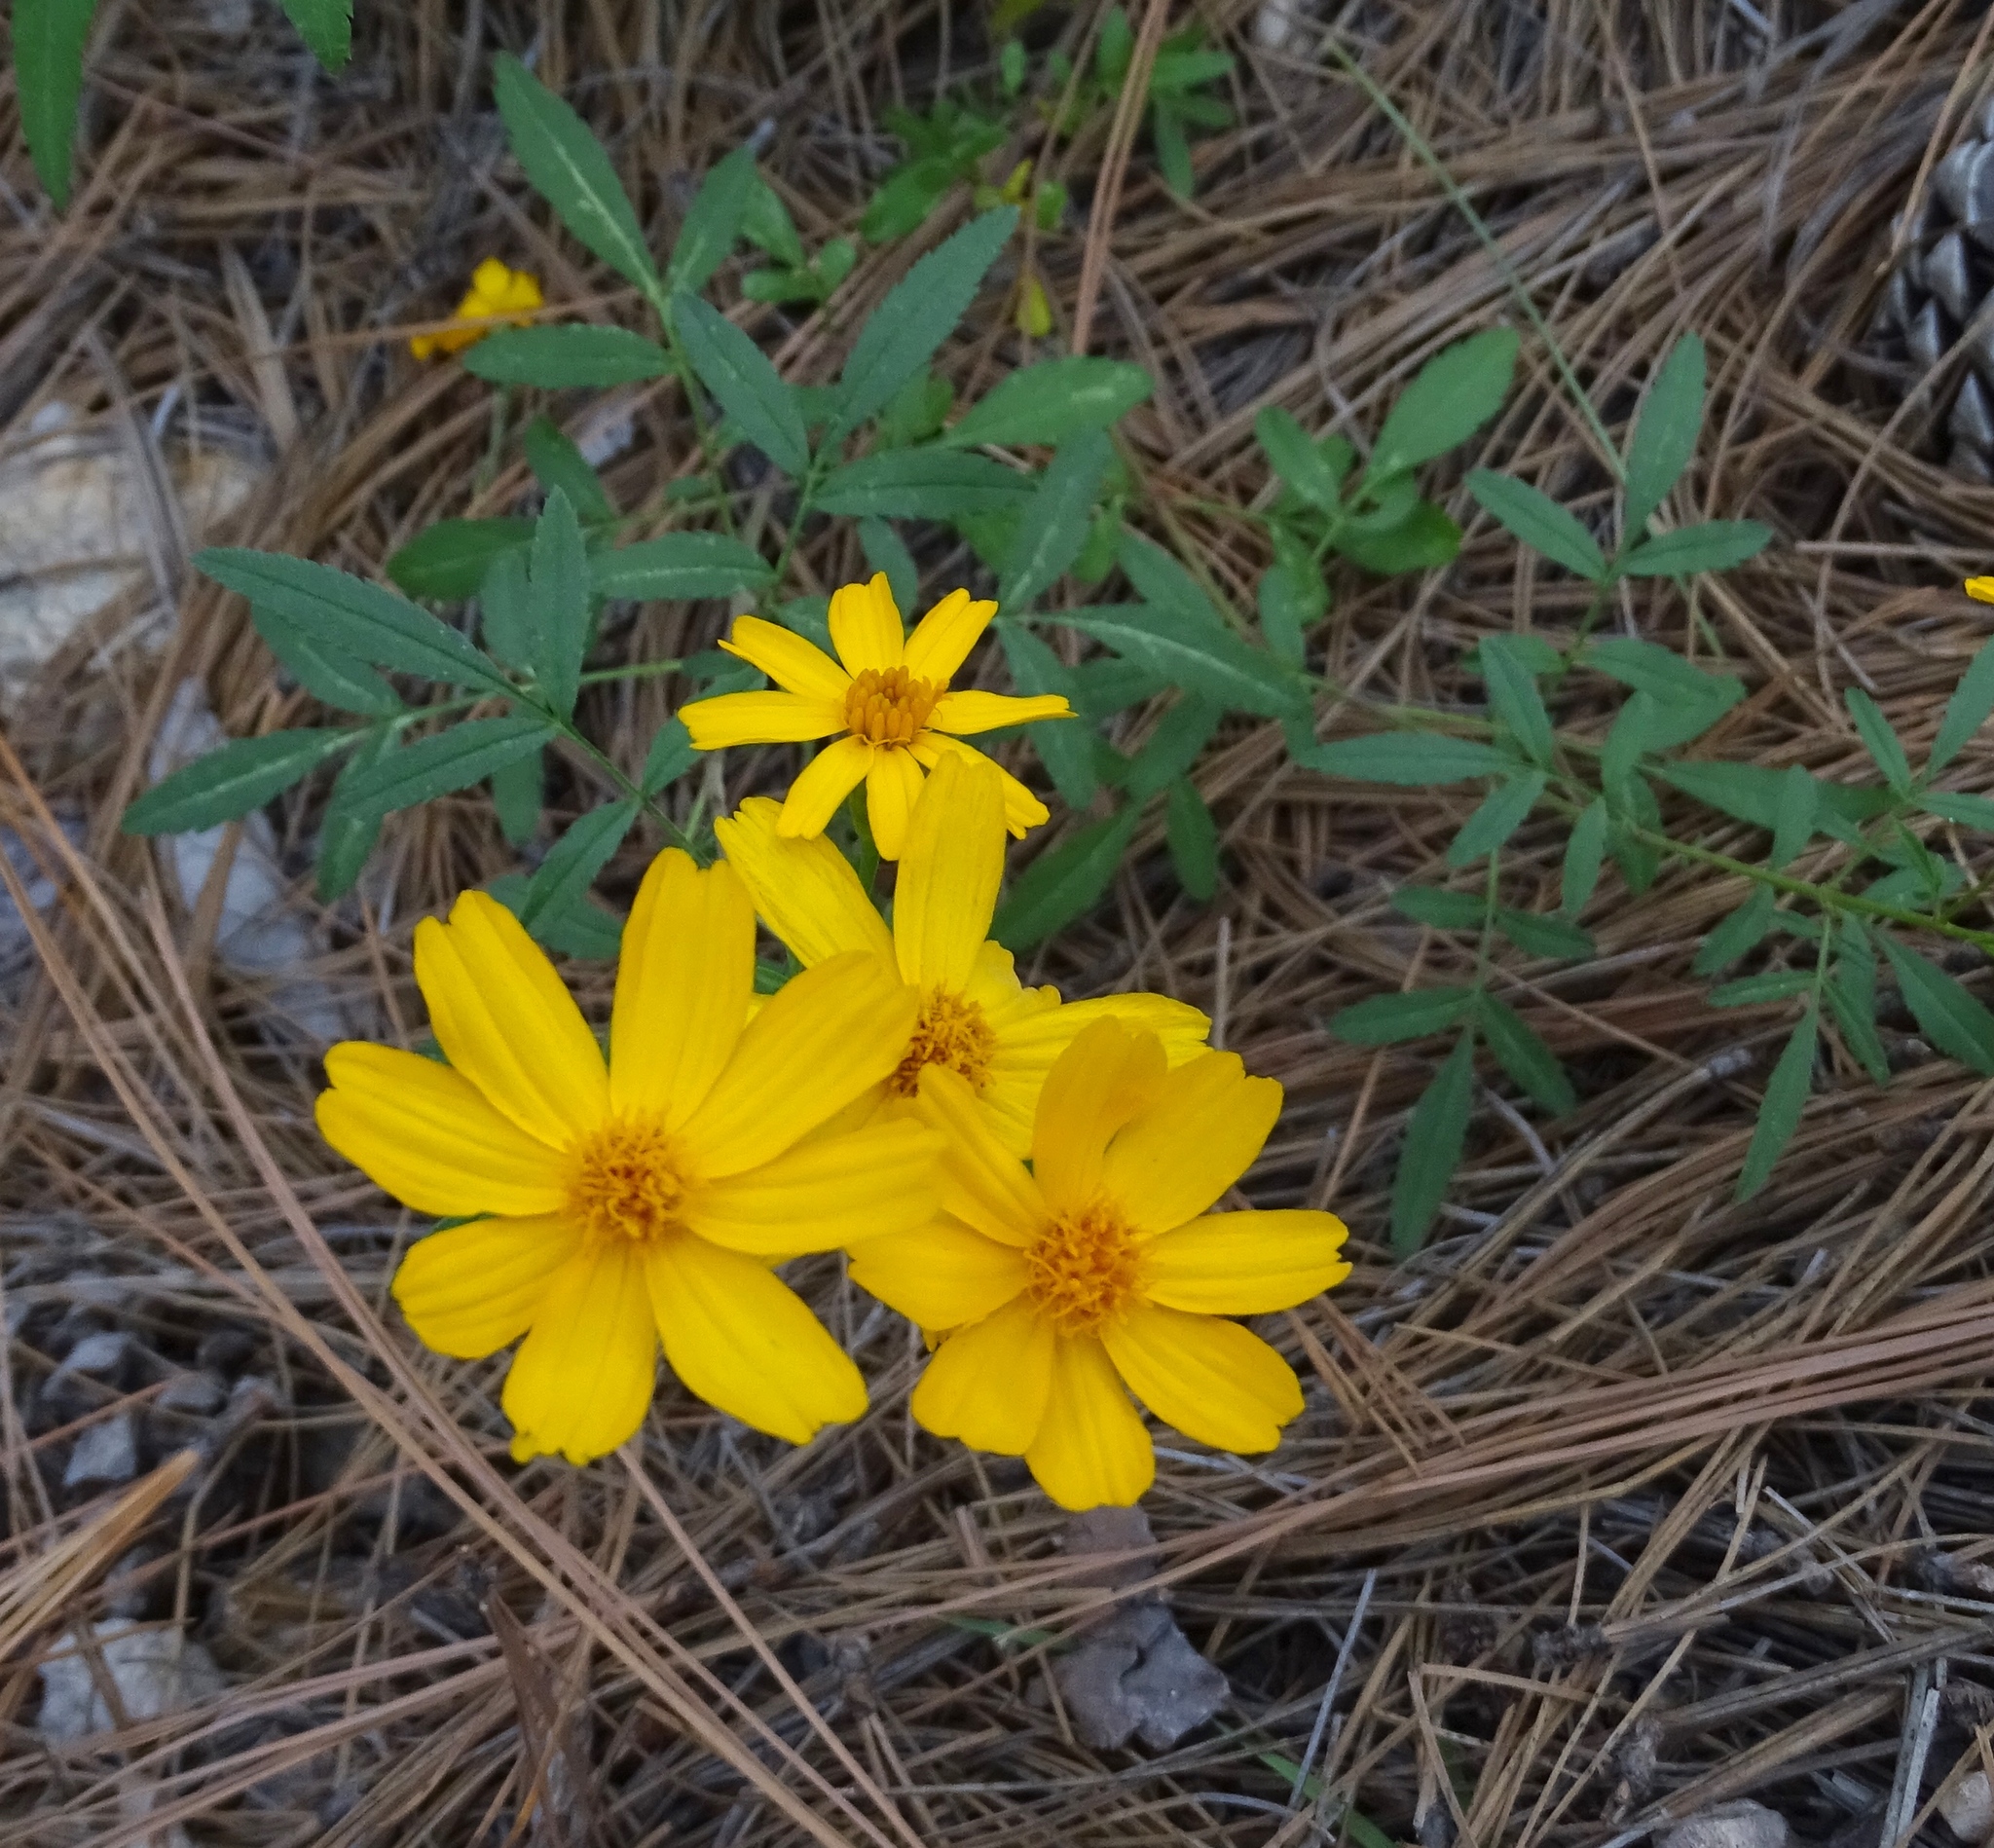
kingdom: Plantae
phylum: Tracheophyta
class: Magnoliopsida
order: Asterales
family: Asteraceae
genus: Tagetes
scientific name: Tagetes lemmonii
